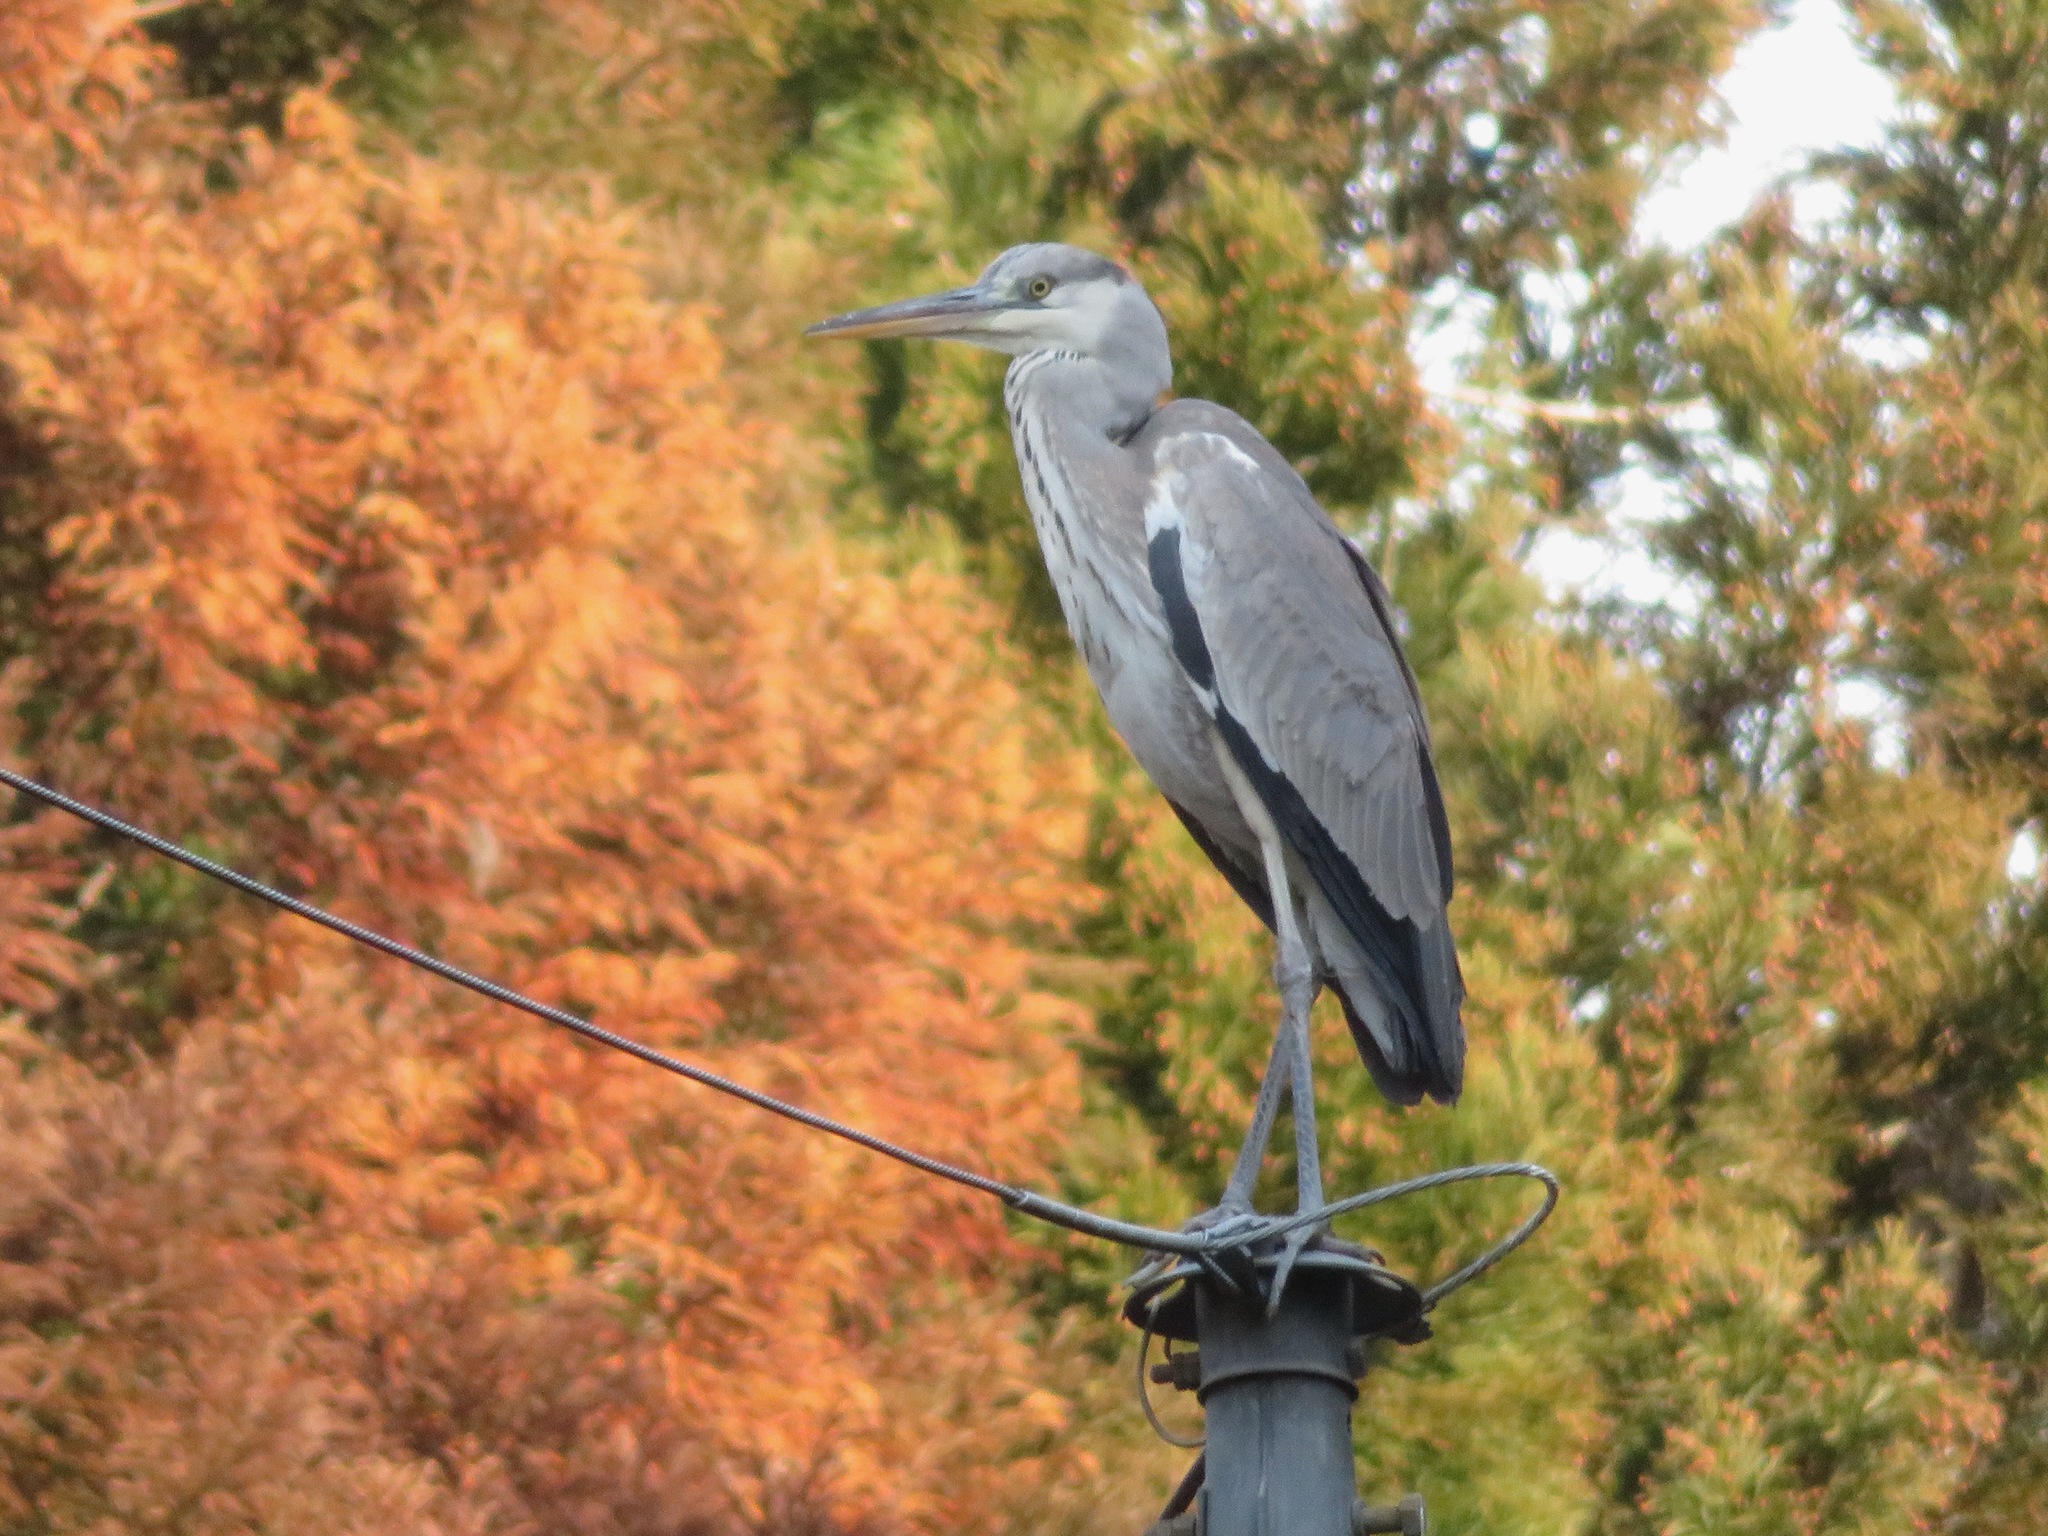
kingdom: Animalia
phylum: Chordata
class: Aves
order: Pelecaniformes
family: Ardeidae
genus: Ardea
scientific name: Ardea cinerea
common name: Grey heron
